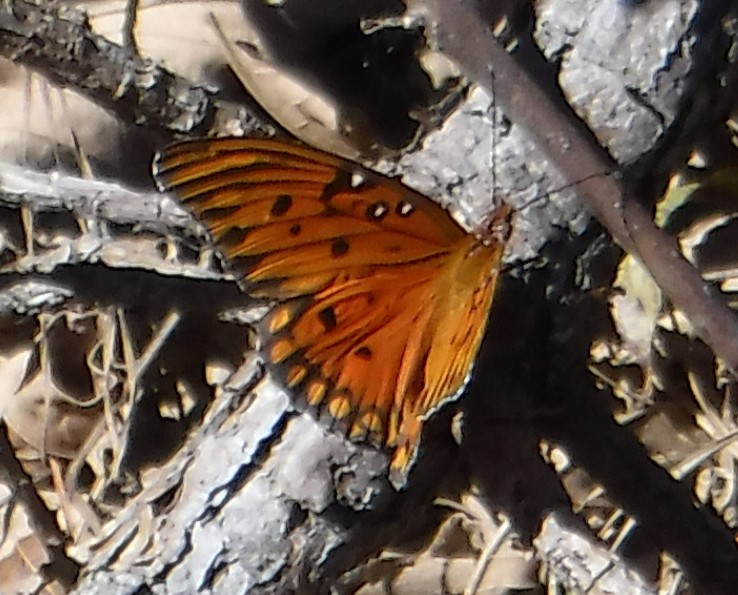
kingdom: Animalia
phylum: Arthropoda
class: Insecta
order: Lepidoptera
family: Nymphalidae
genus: Dione
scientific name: Dione vanillae
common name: Gulf fritillary
